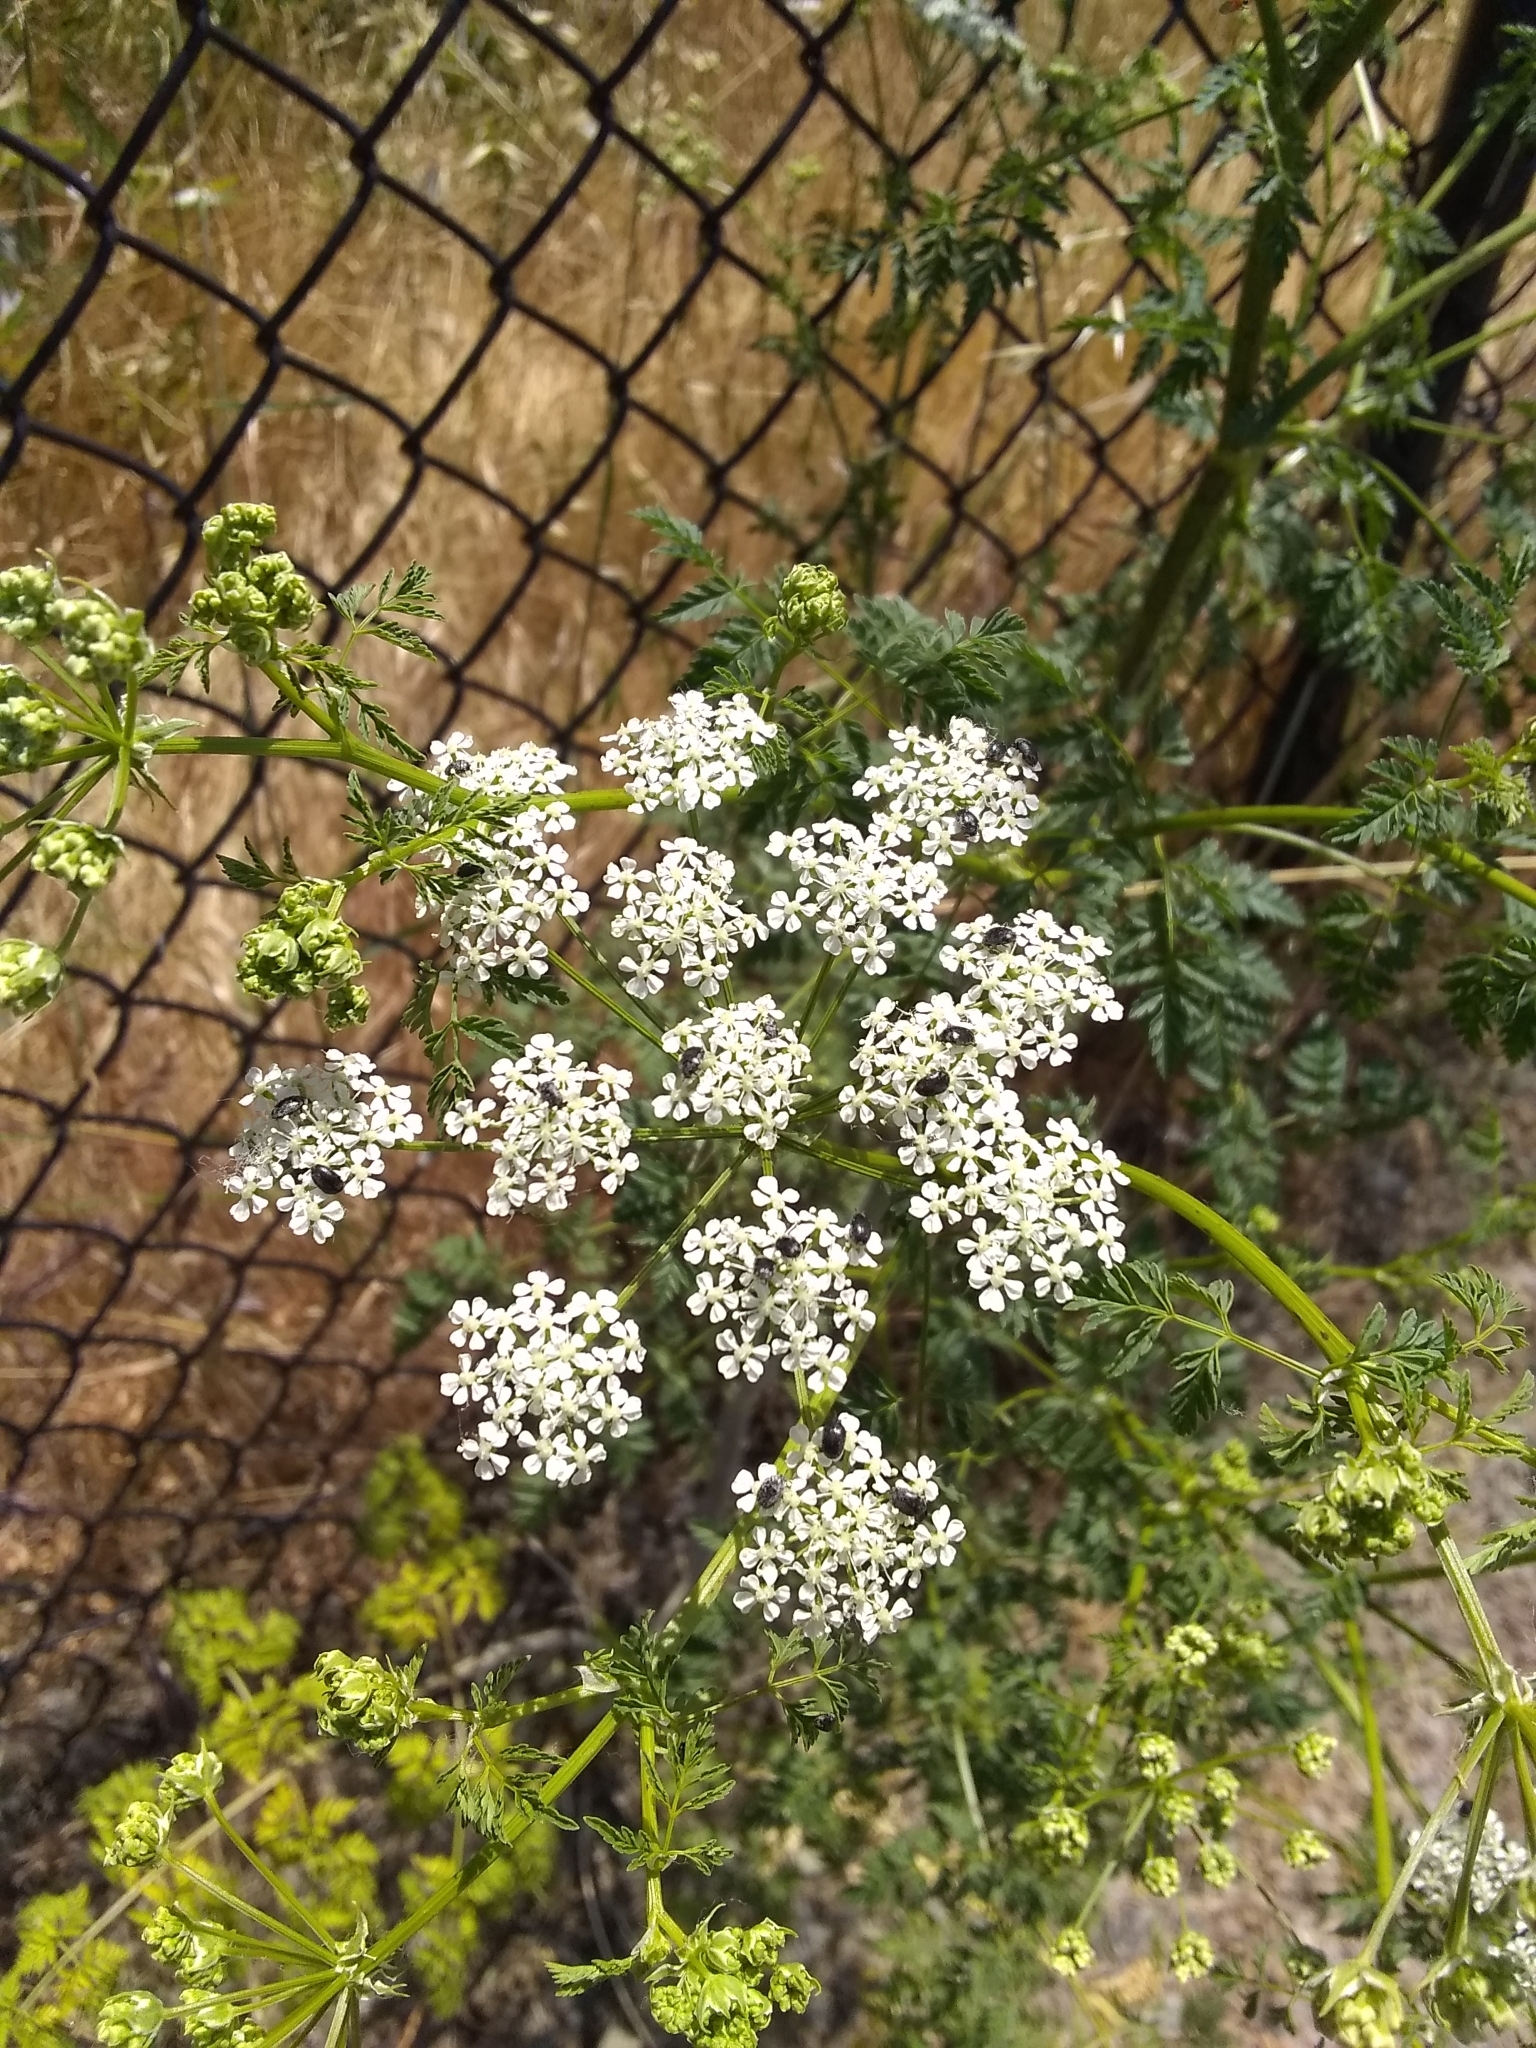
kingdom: Plantae
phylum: Tracheophyta
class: Magnoliopsida
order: Apiales
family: Apiaceae
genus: Conium
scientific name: Conium maculatum
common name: Hemlock
